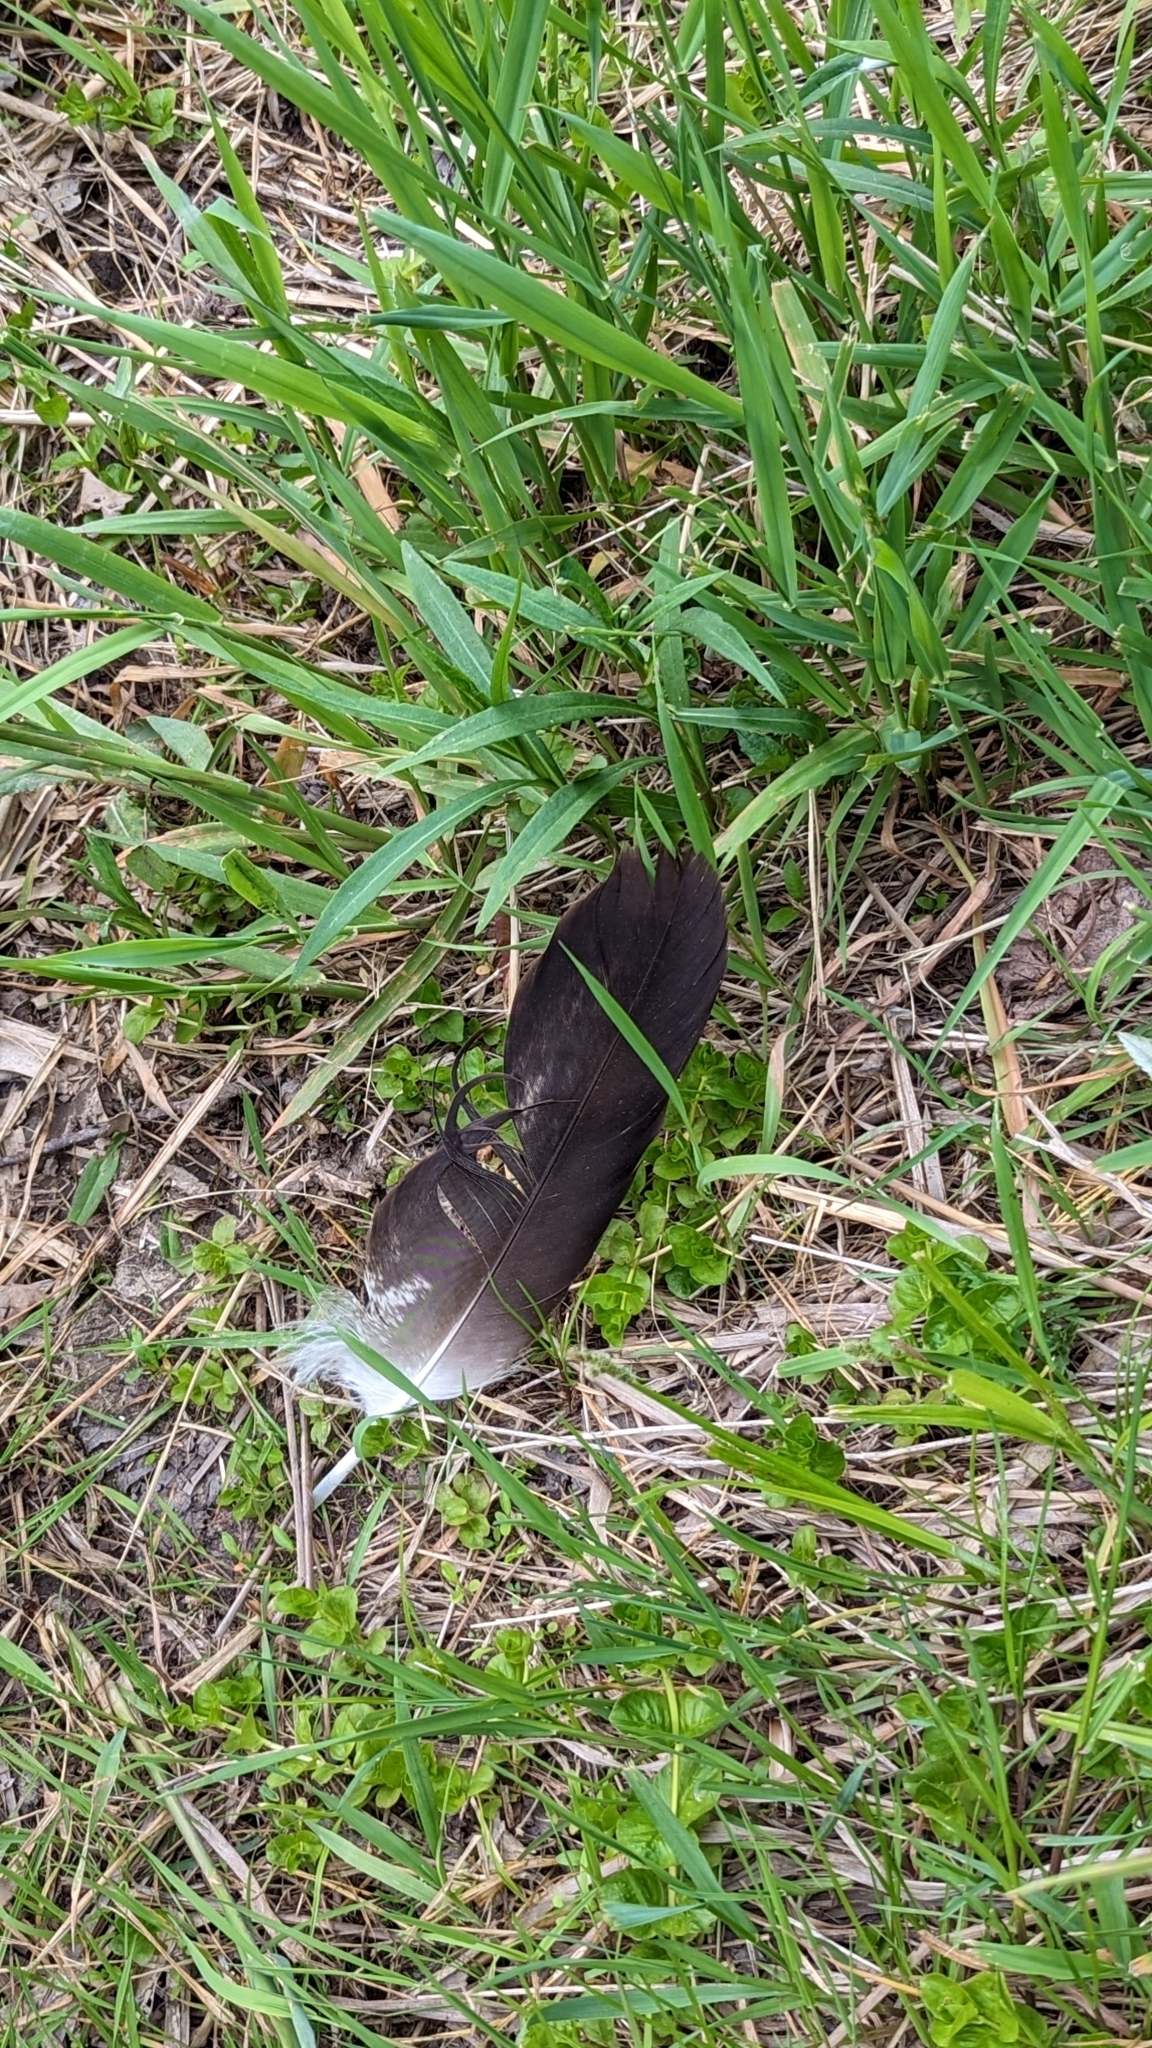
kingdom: Animalia
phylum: Chordata
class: Aves
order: Accipitriformes
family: Accipitridae
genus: Haliaeetus
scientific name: Haliaeetus leucocephalus
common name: Bald eagle
